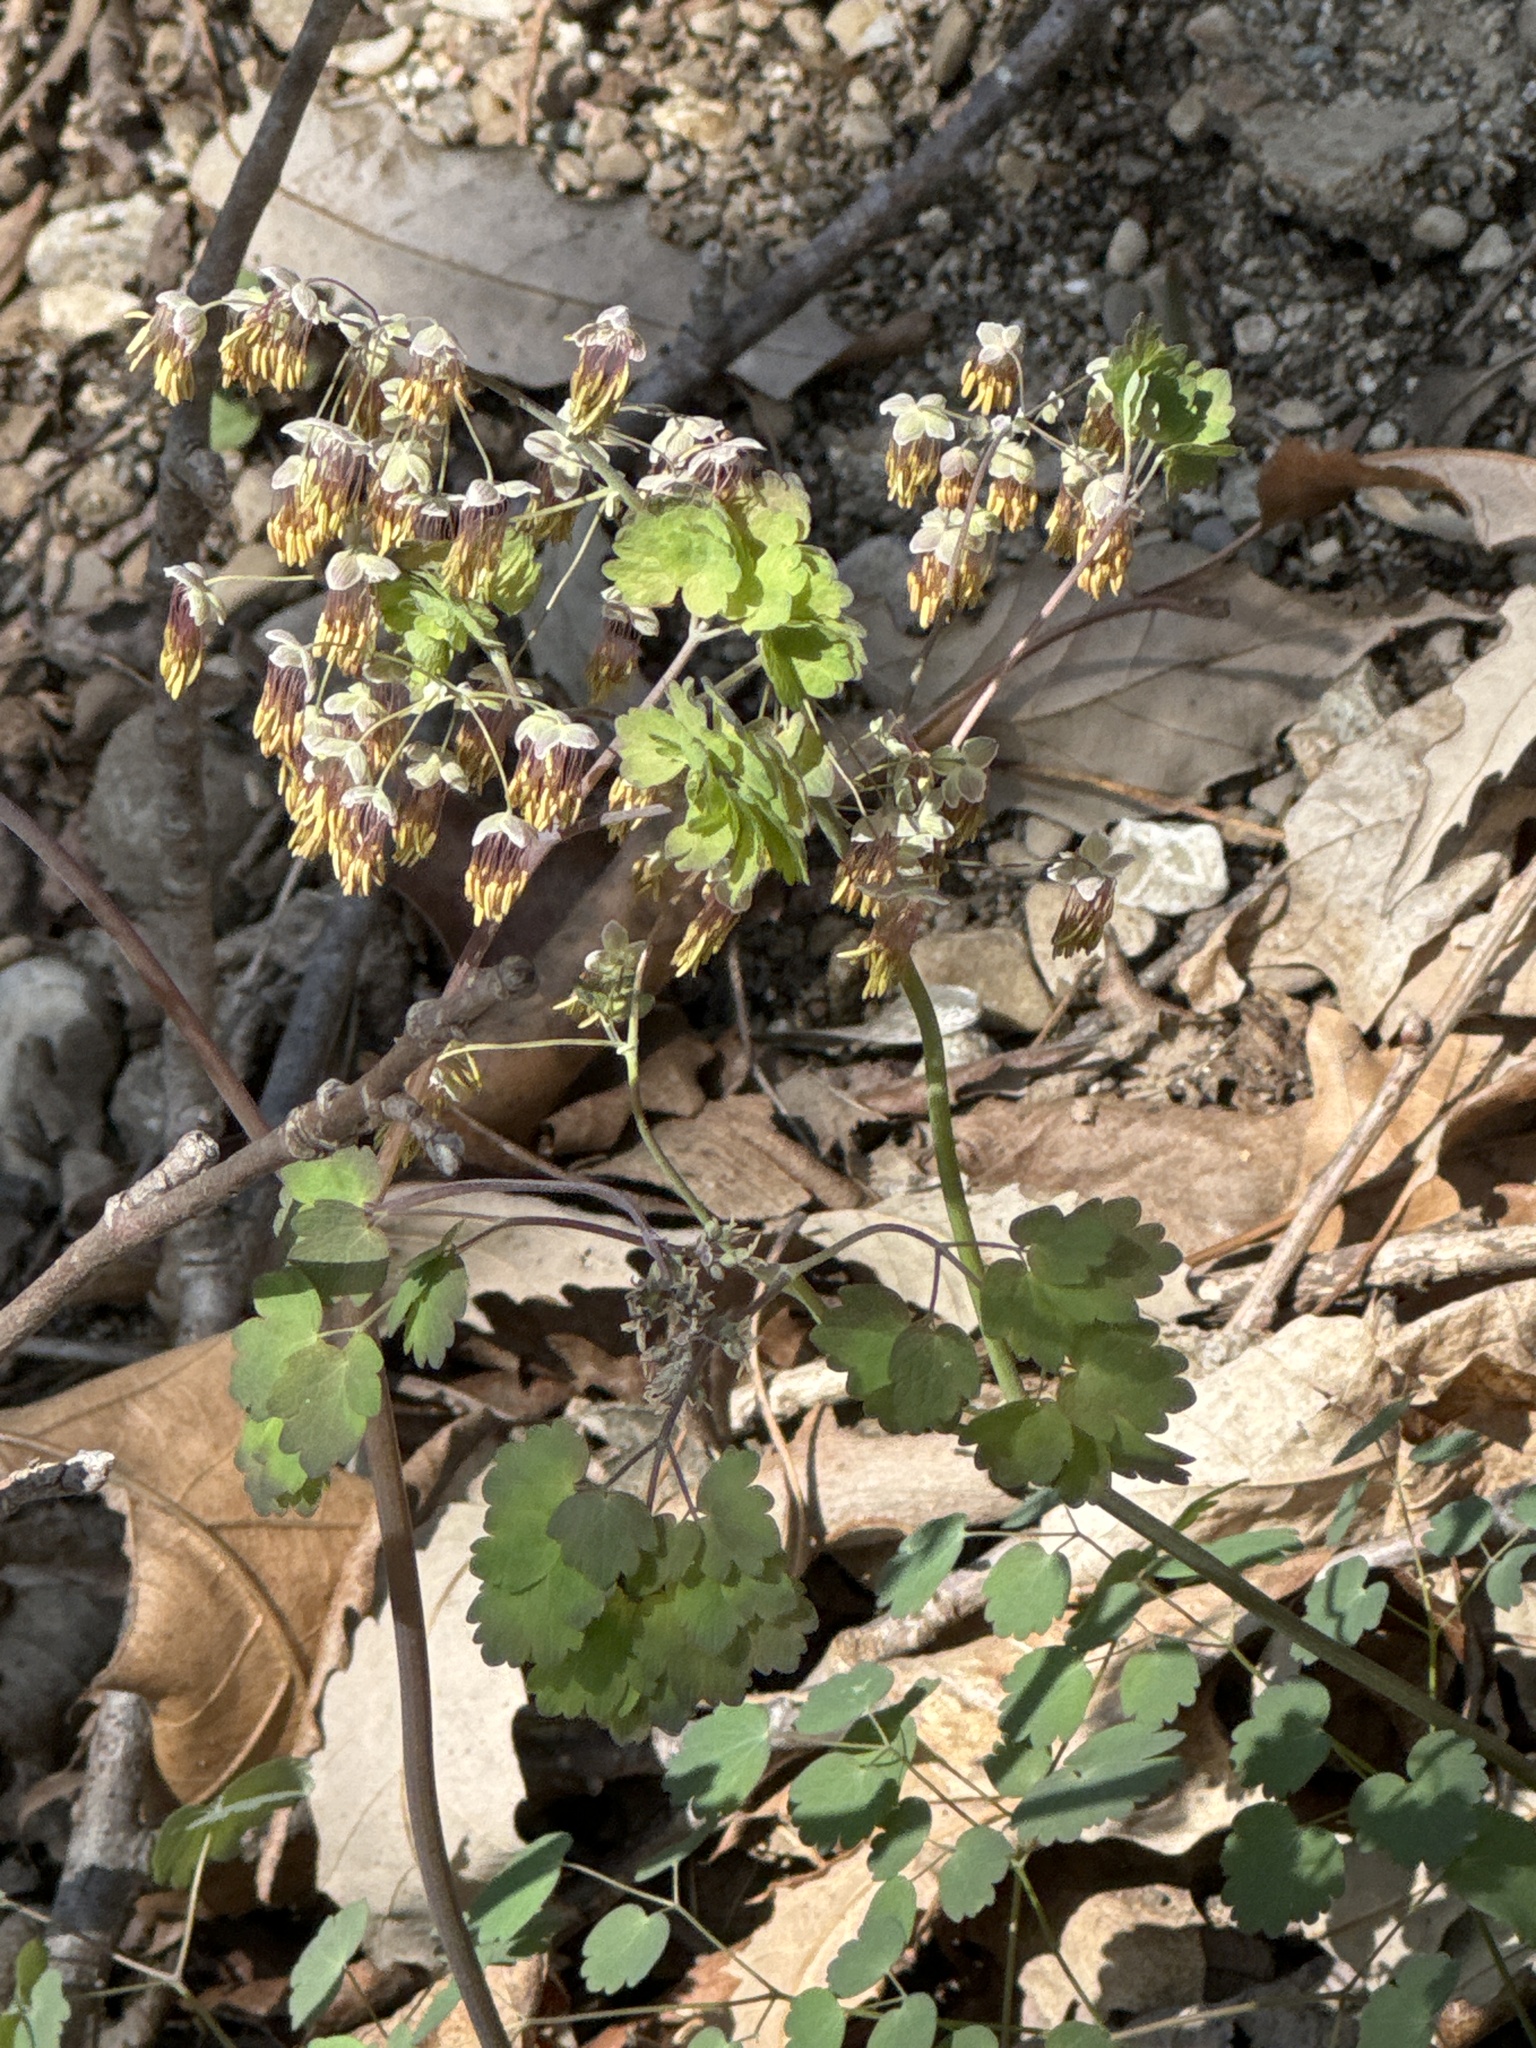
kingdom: Plantae
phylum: Tracheophyta
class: Magnoliopsida
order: Ranunculales
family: Ranunculaceae
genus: Thalictrum
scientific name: Thalictrum dioicum
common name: Early meadow-rue
